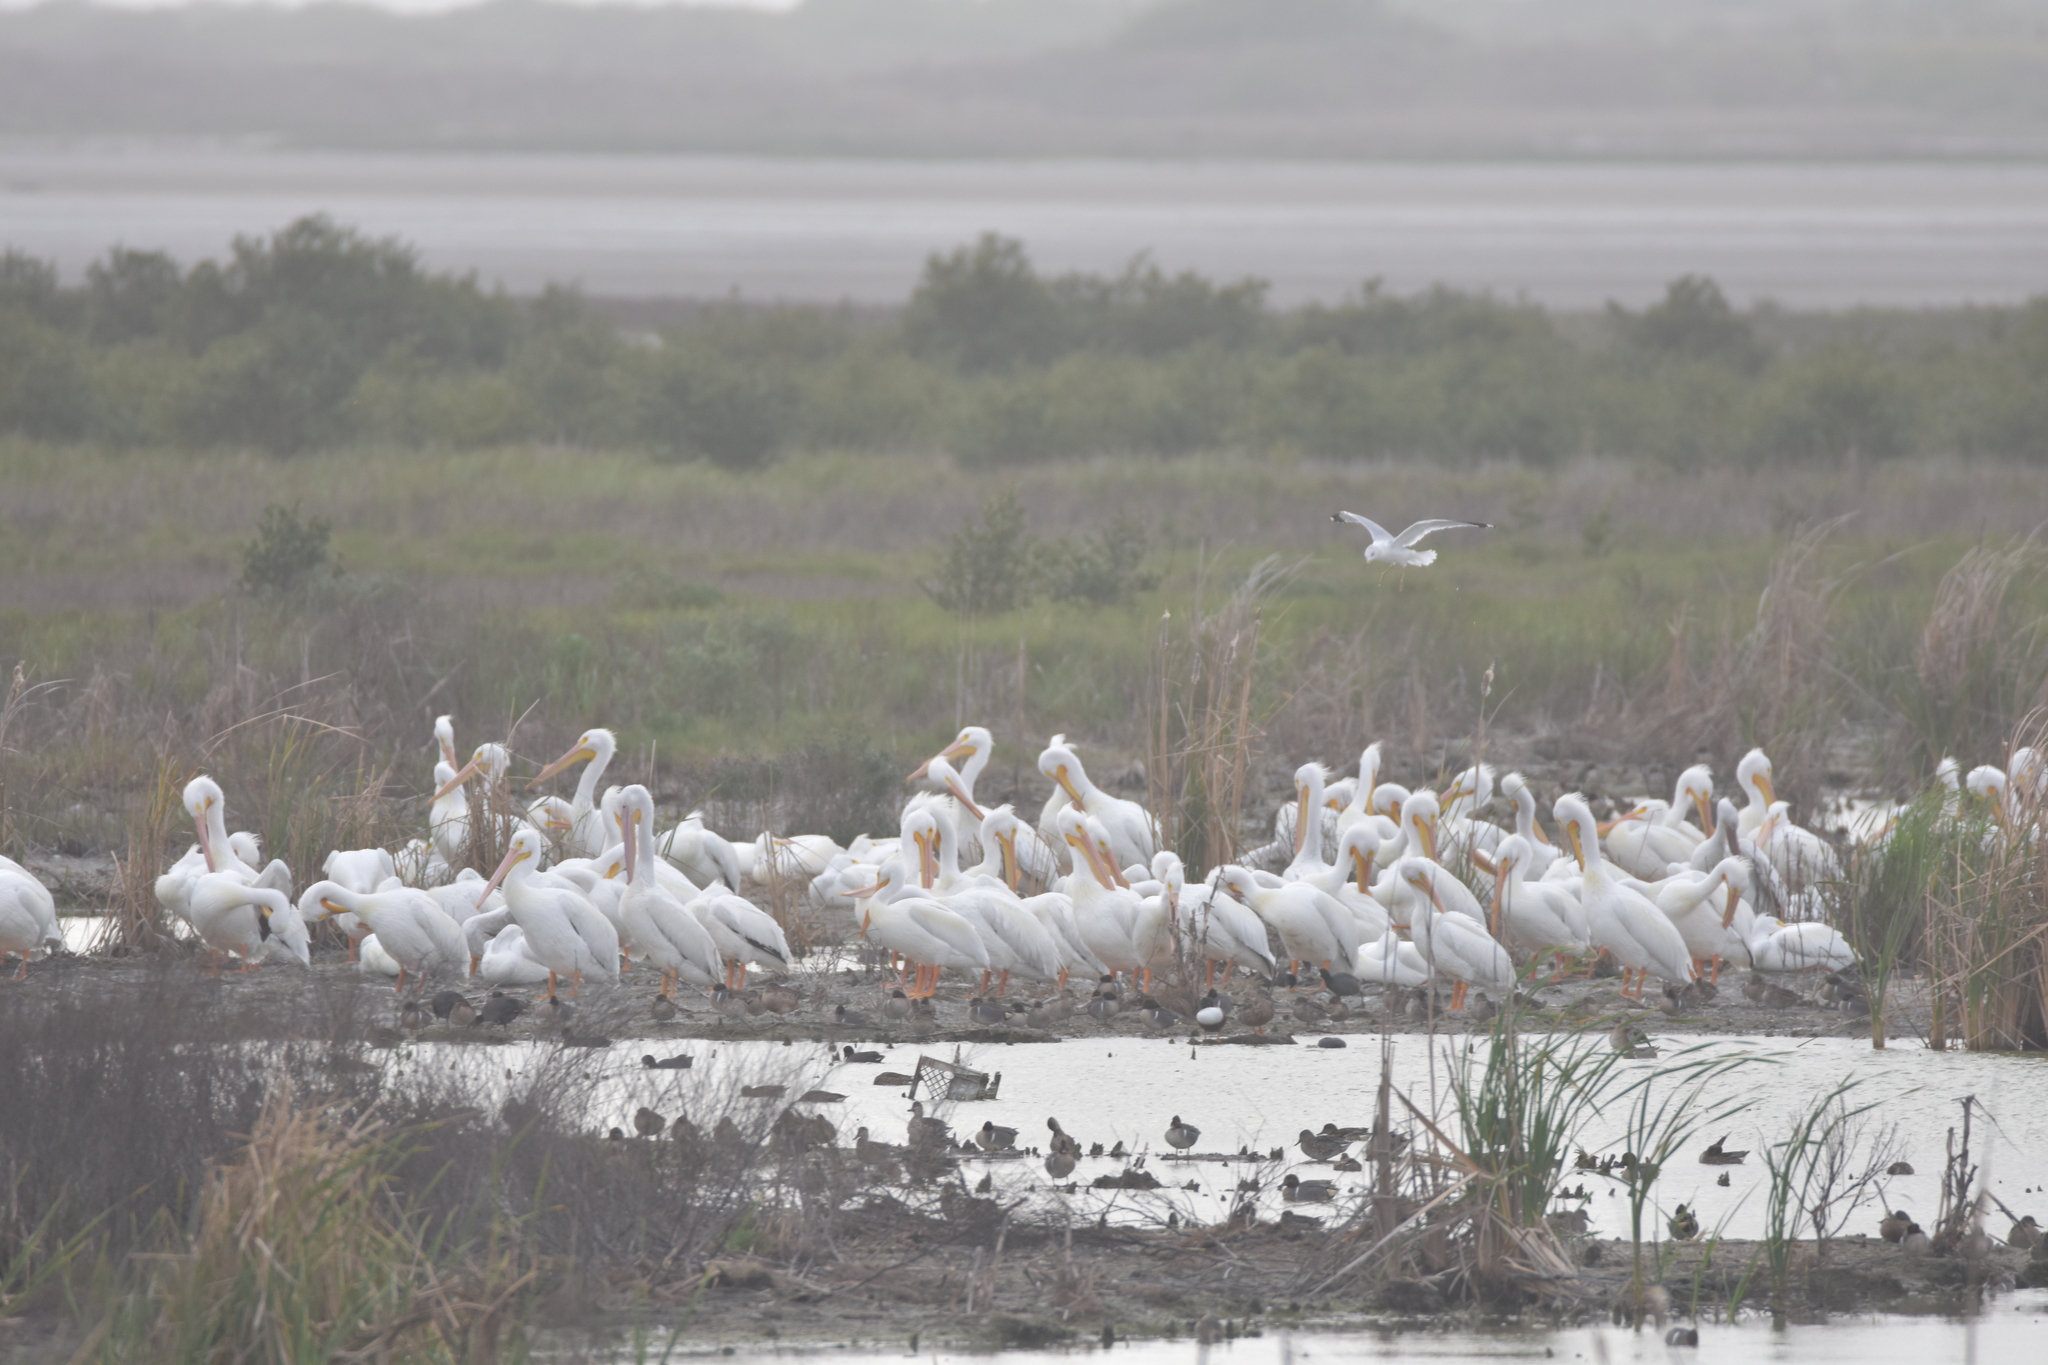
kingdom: Animalia
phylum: Chordata
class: Aves
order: Pelecaniformes
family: Pelecanidae
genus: Pelecanus
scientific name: Pelecanus erythrorhynchos
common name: American white pelican
